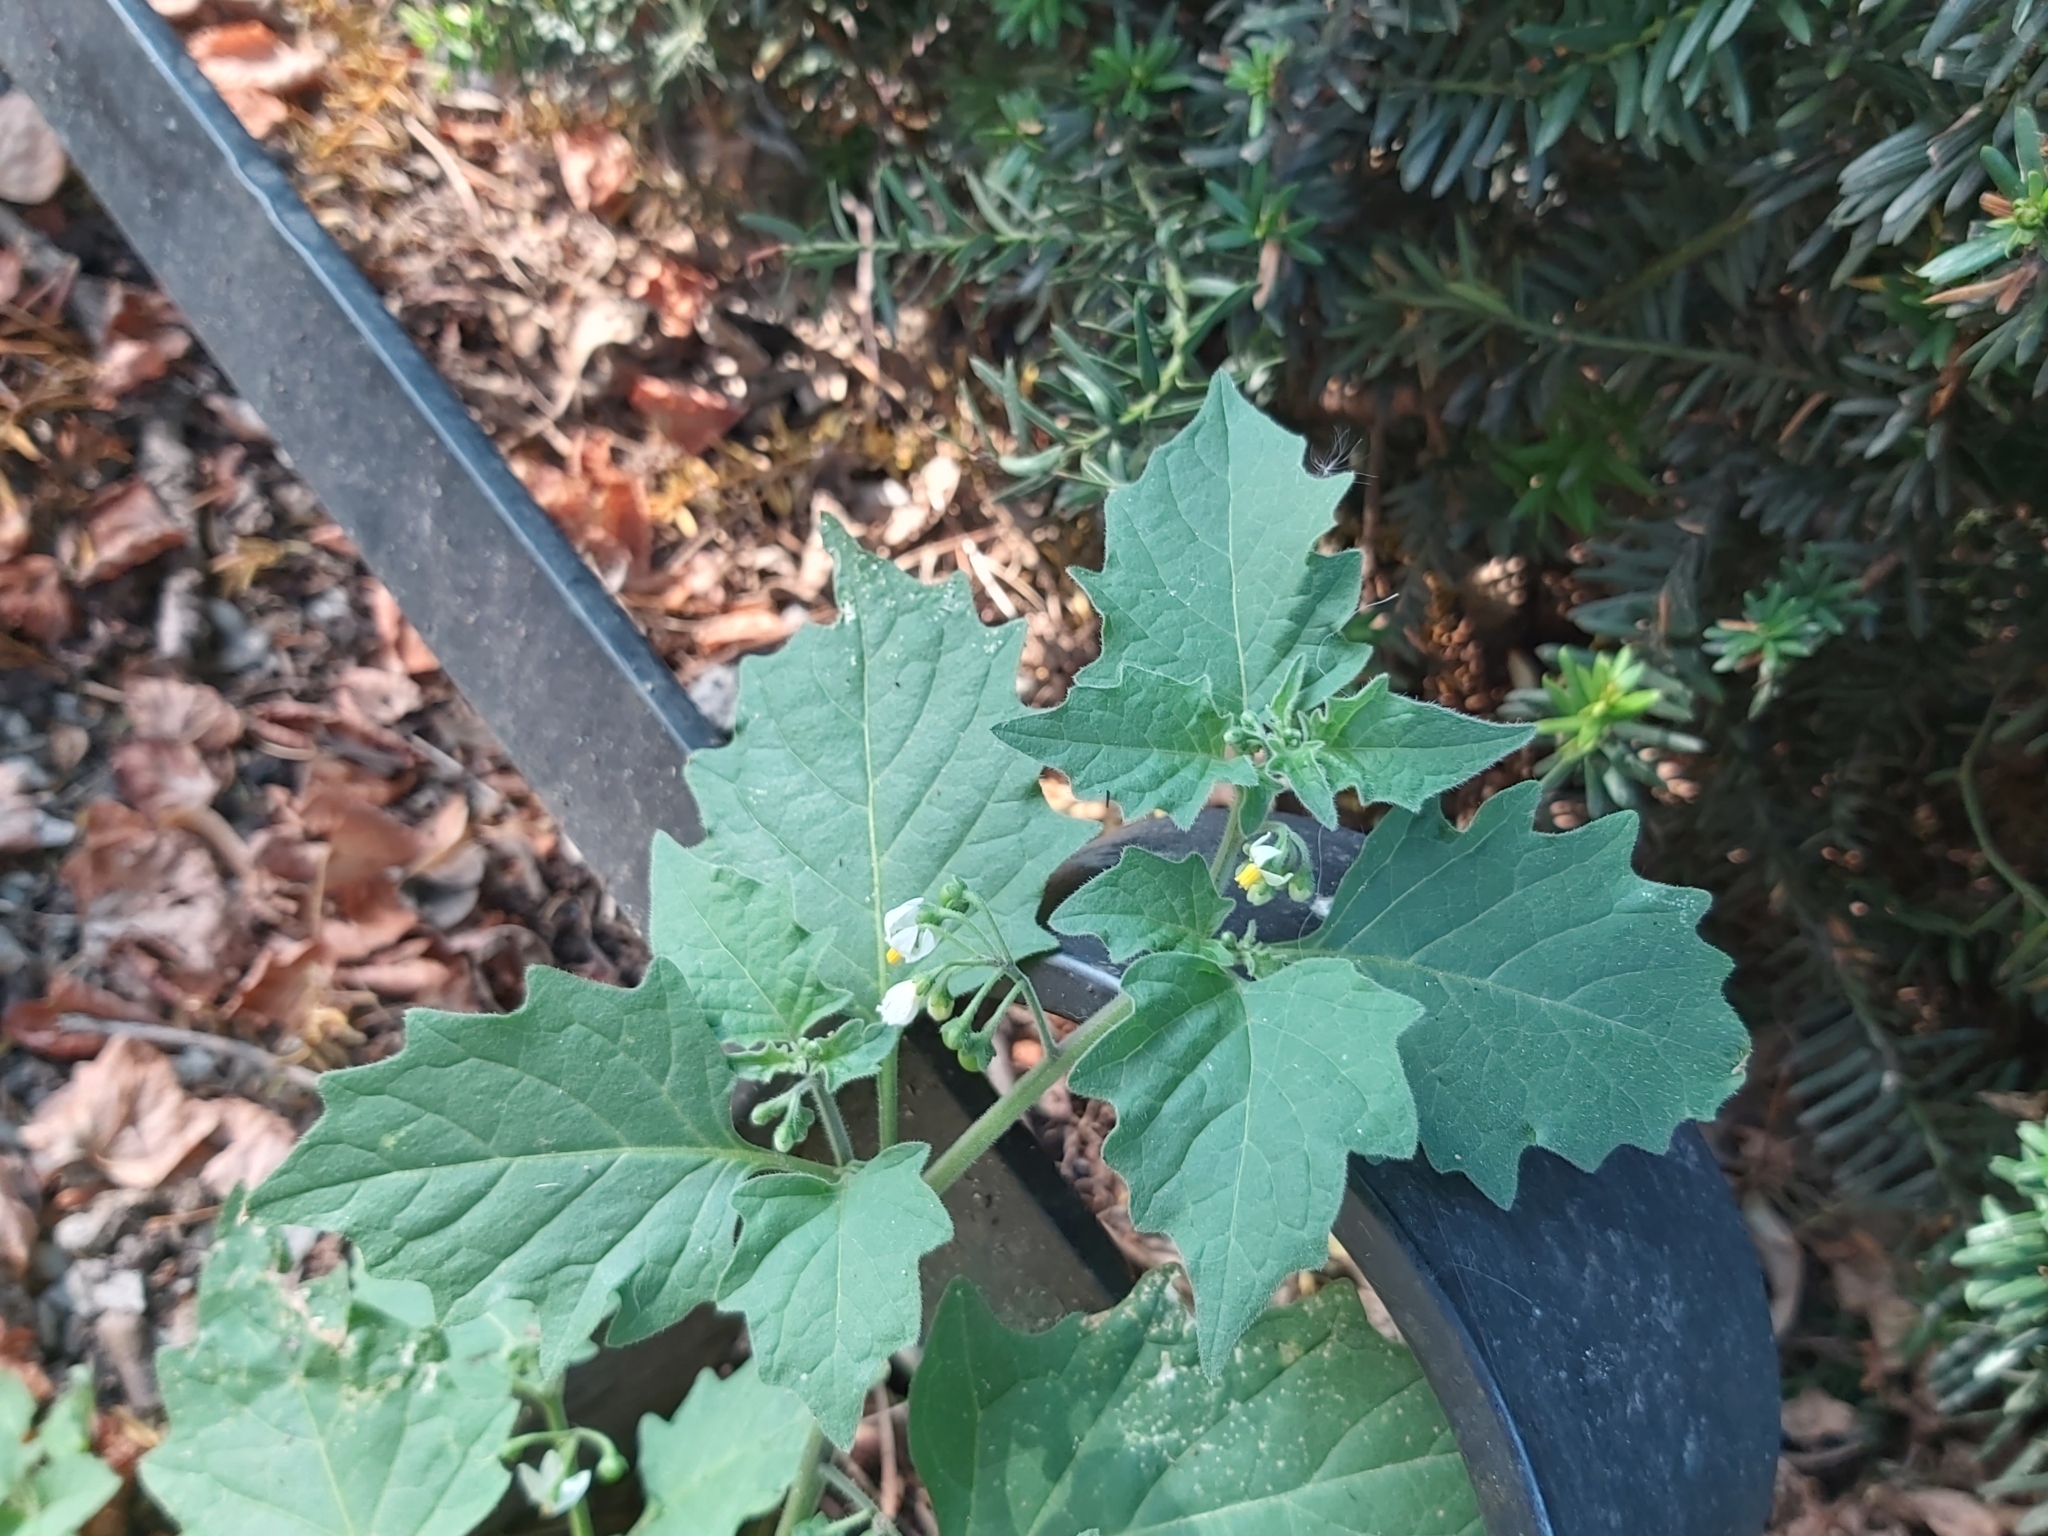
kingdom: Plantae
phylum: Tracheophyta
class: Magnoliopsida
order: Solanales
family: Solanaceae
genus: Solanum
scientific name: Solanum nigrum
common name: Black nightshade
